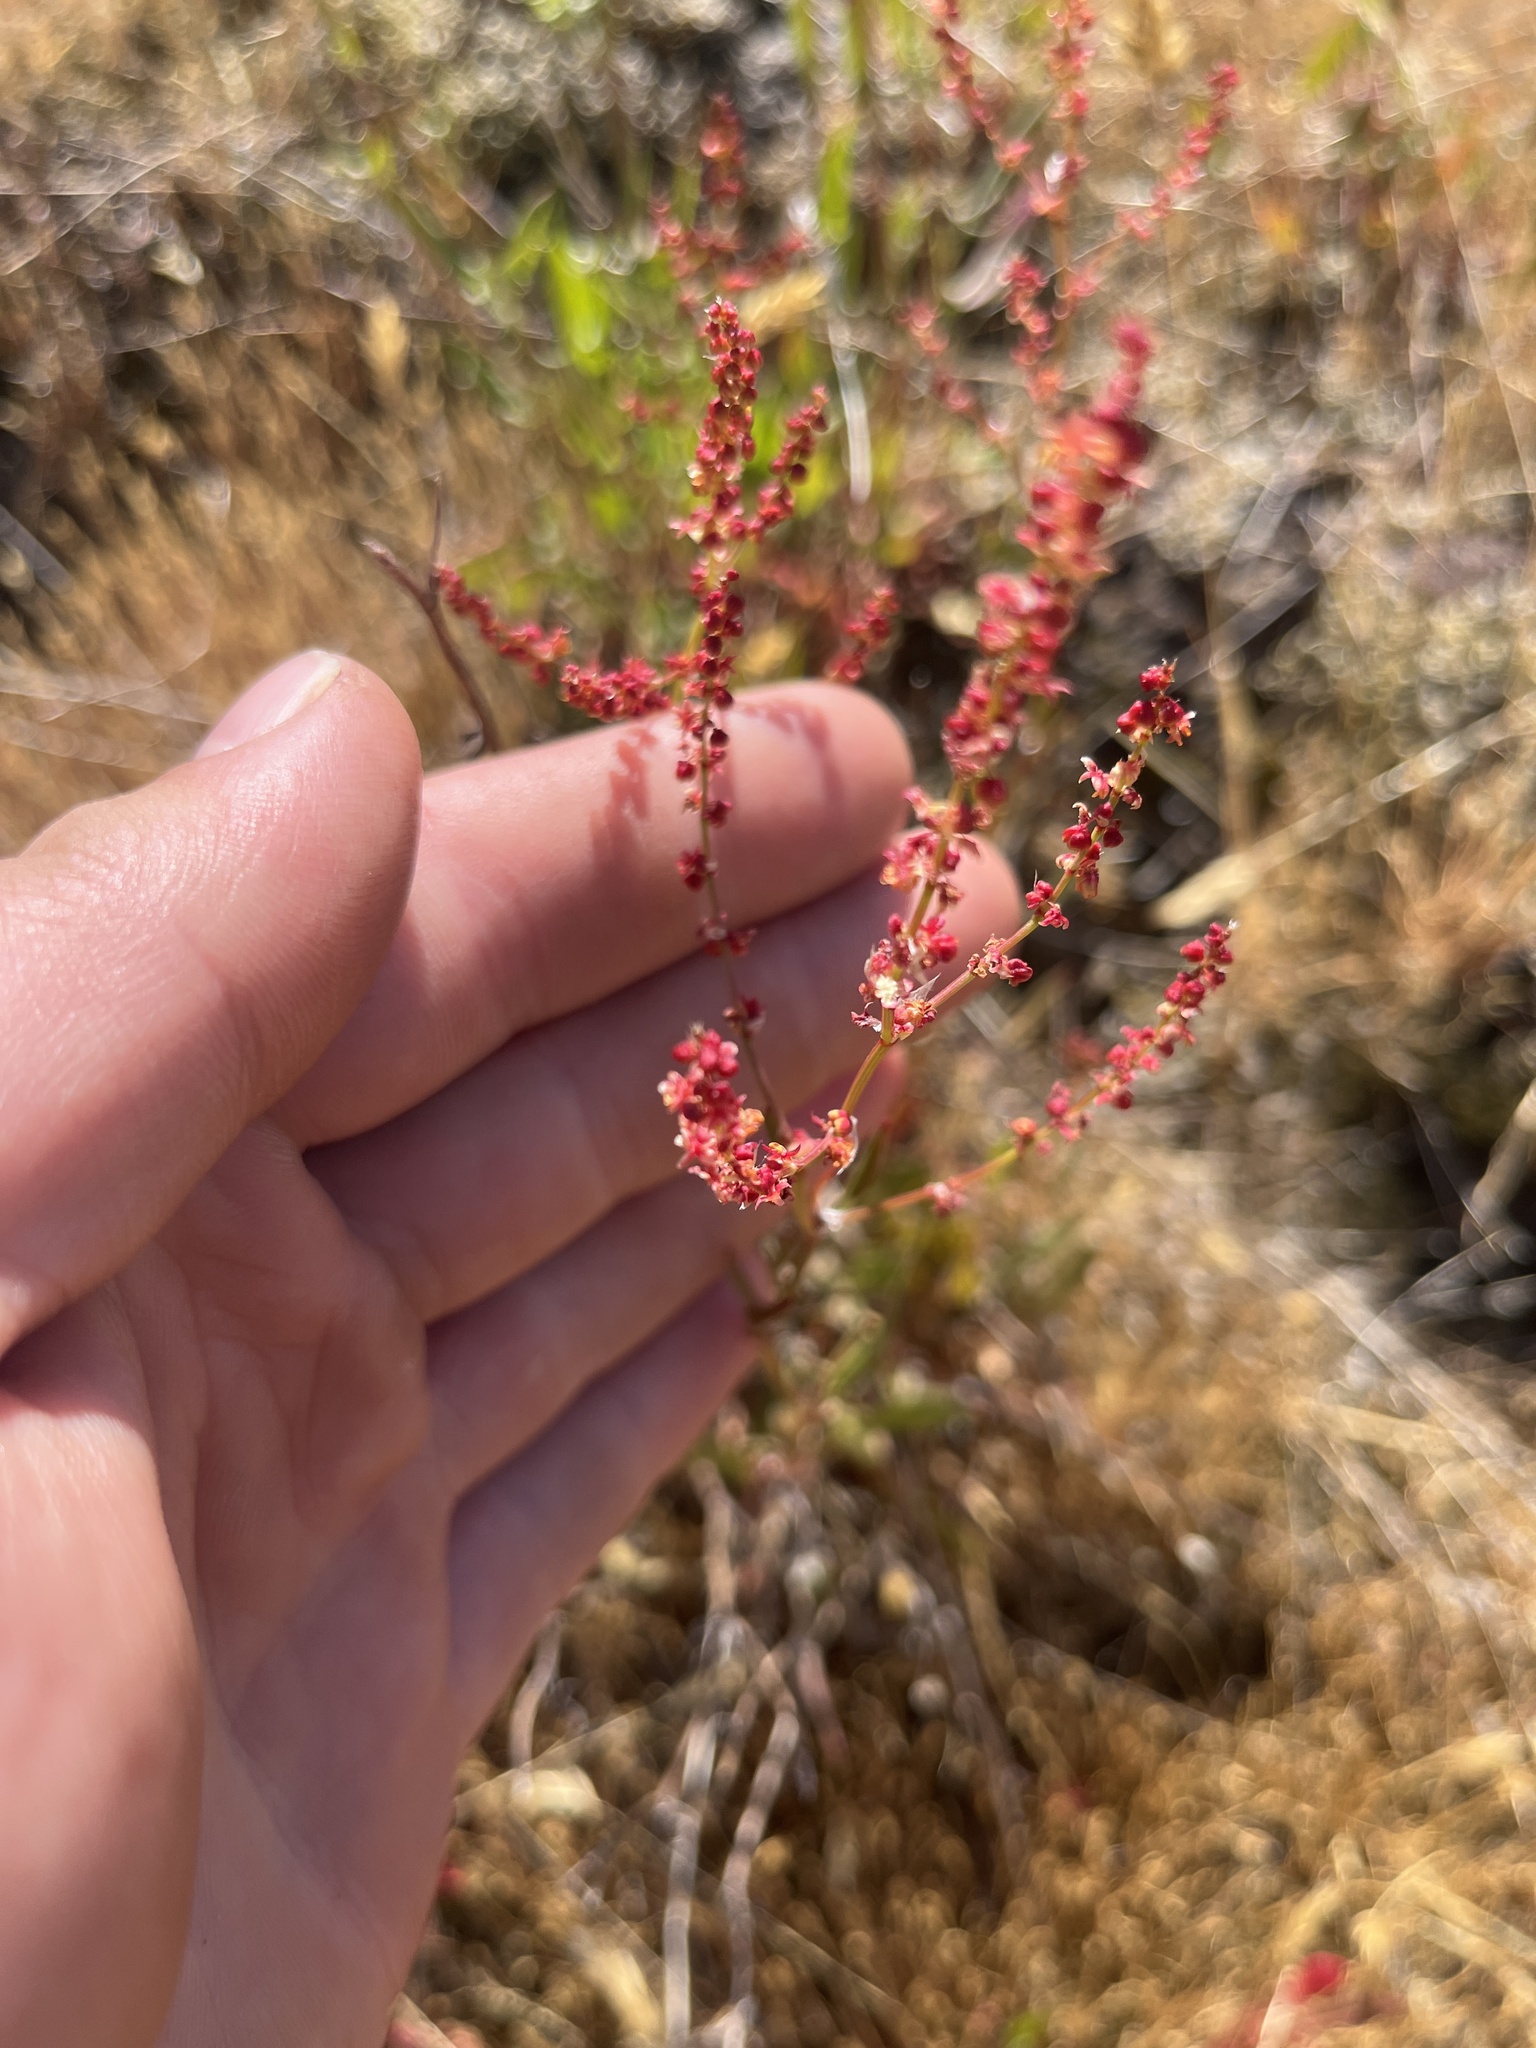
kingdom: Plantae
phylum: Tracheophyta
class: Magnoliopsida
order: Caryophyllales
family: Polygonaceae
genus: Rumex
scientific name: Rumex acetosella
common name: Common sheep sorrel
